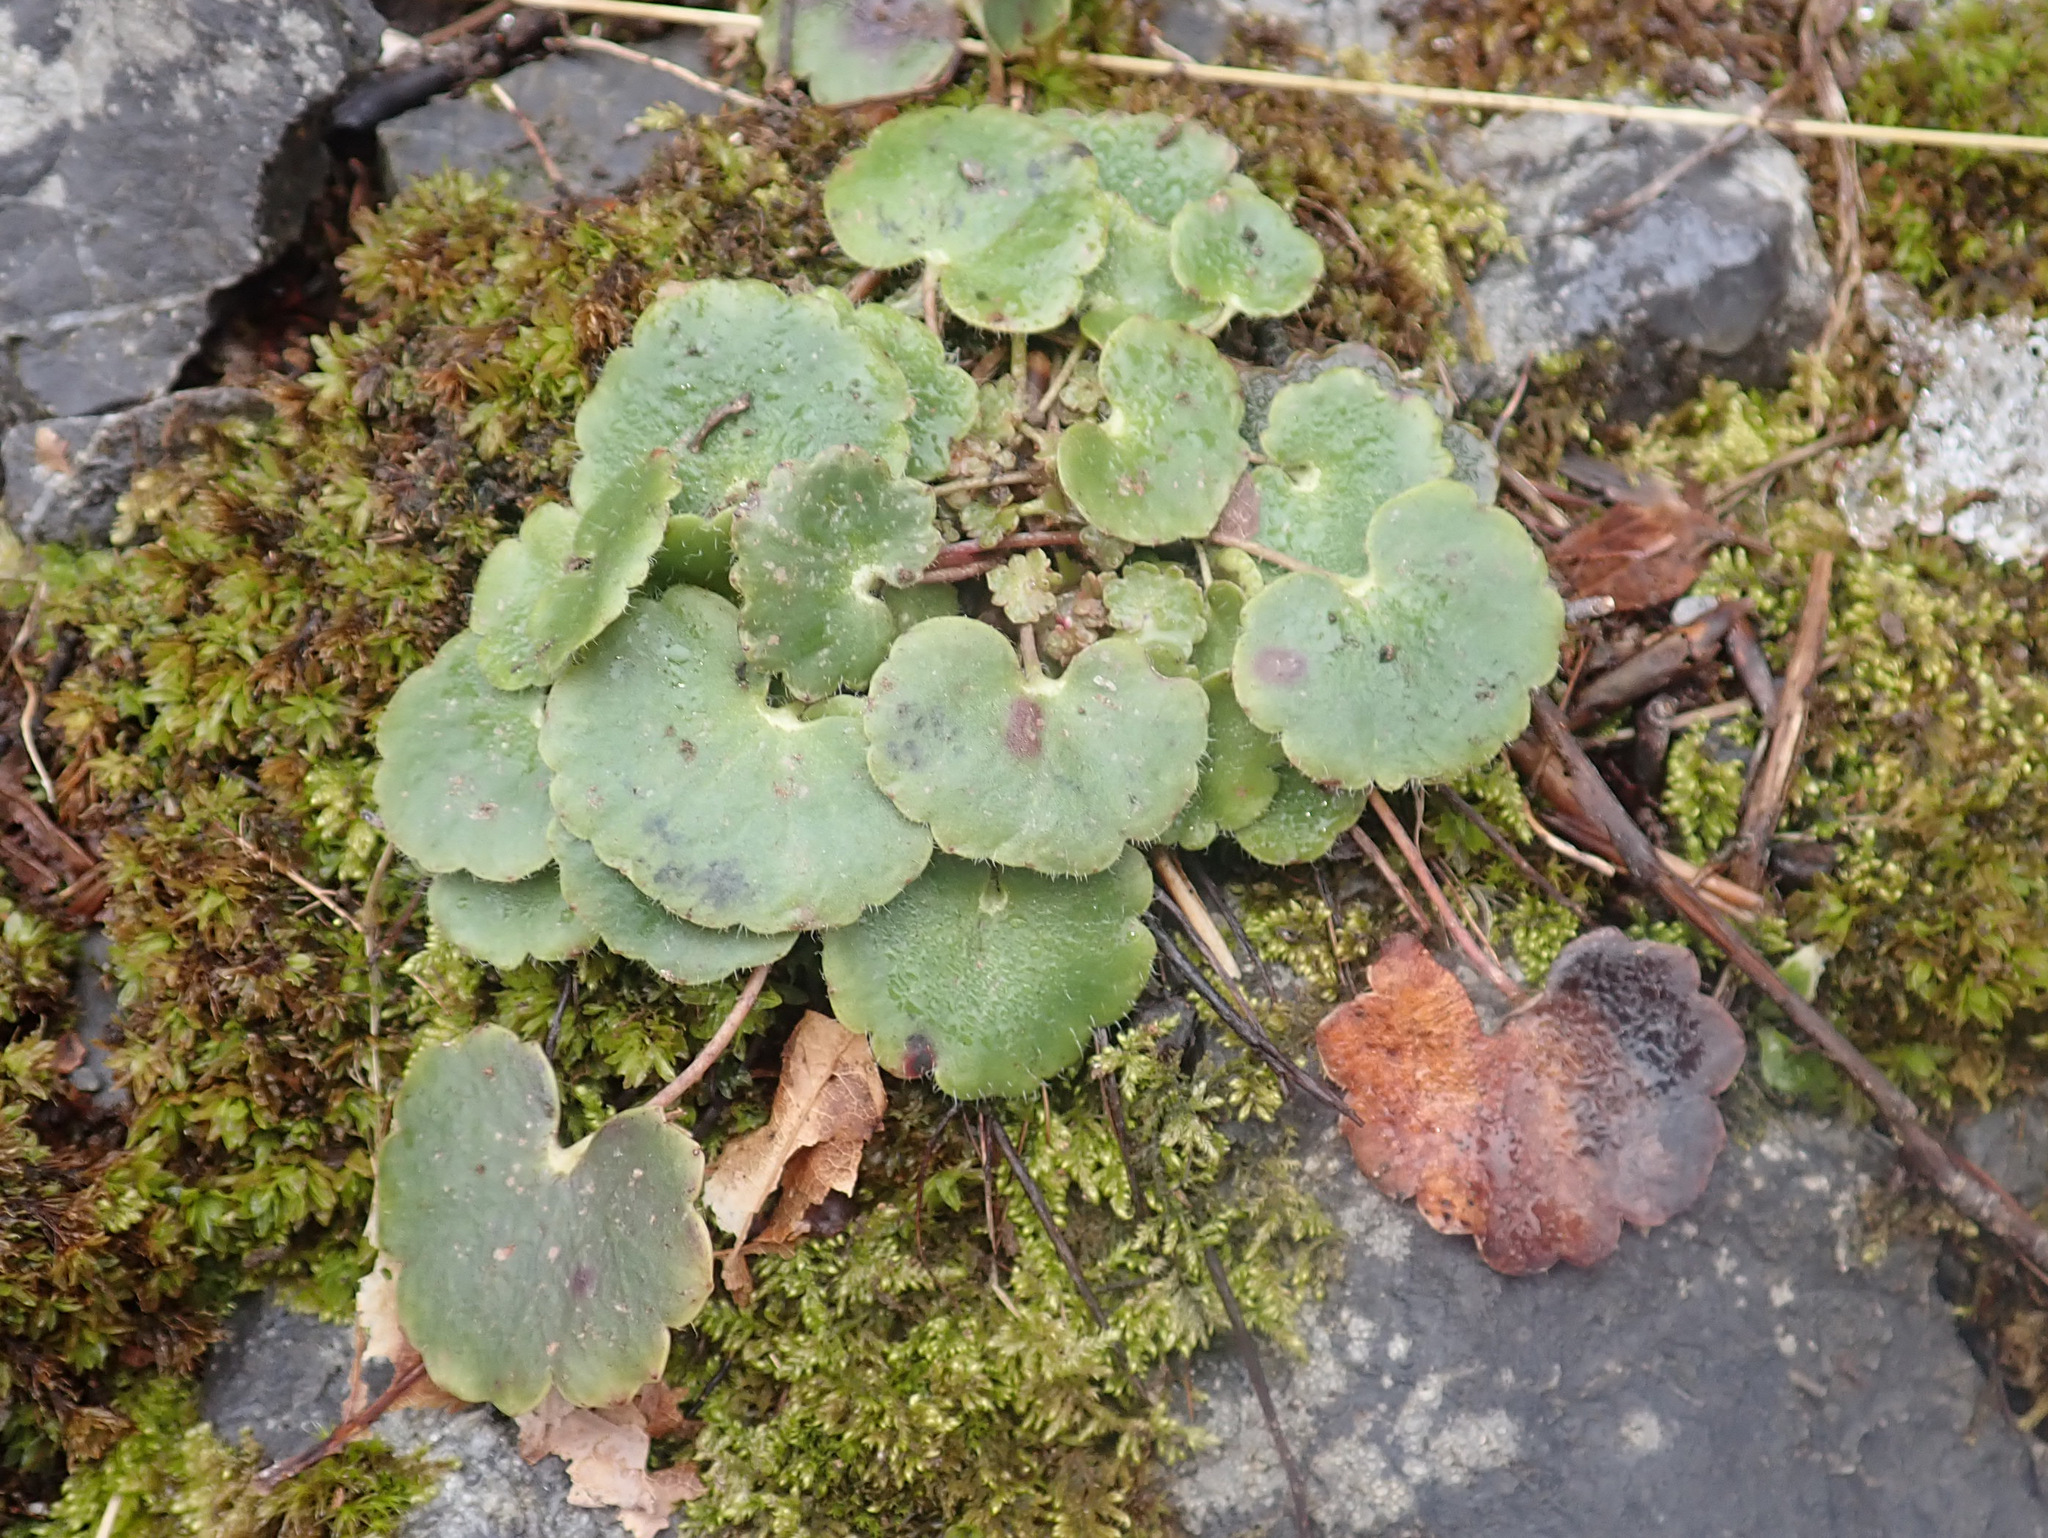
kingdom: Plantae
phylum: Tracheophyta
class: Magnoliopsida
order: Saxifragales
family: Saxifragaceae
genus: Saxifraga
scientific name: Saxifraga rotundifolia
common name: Round-leaved saxifrage
